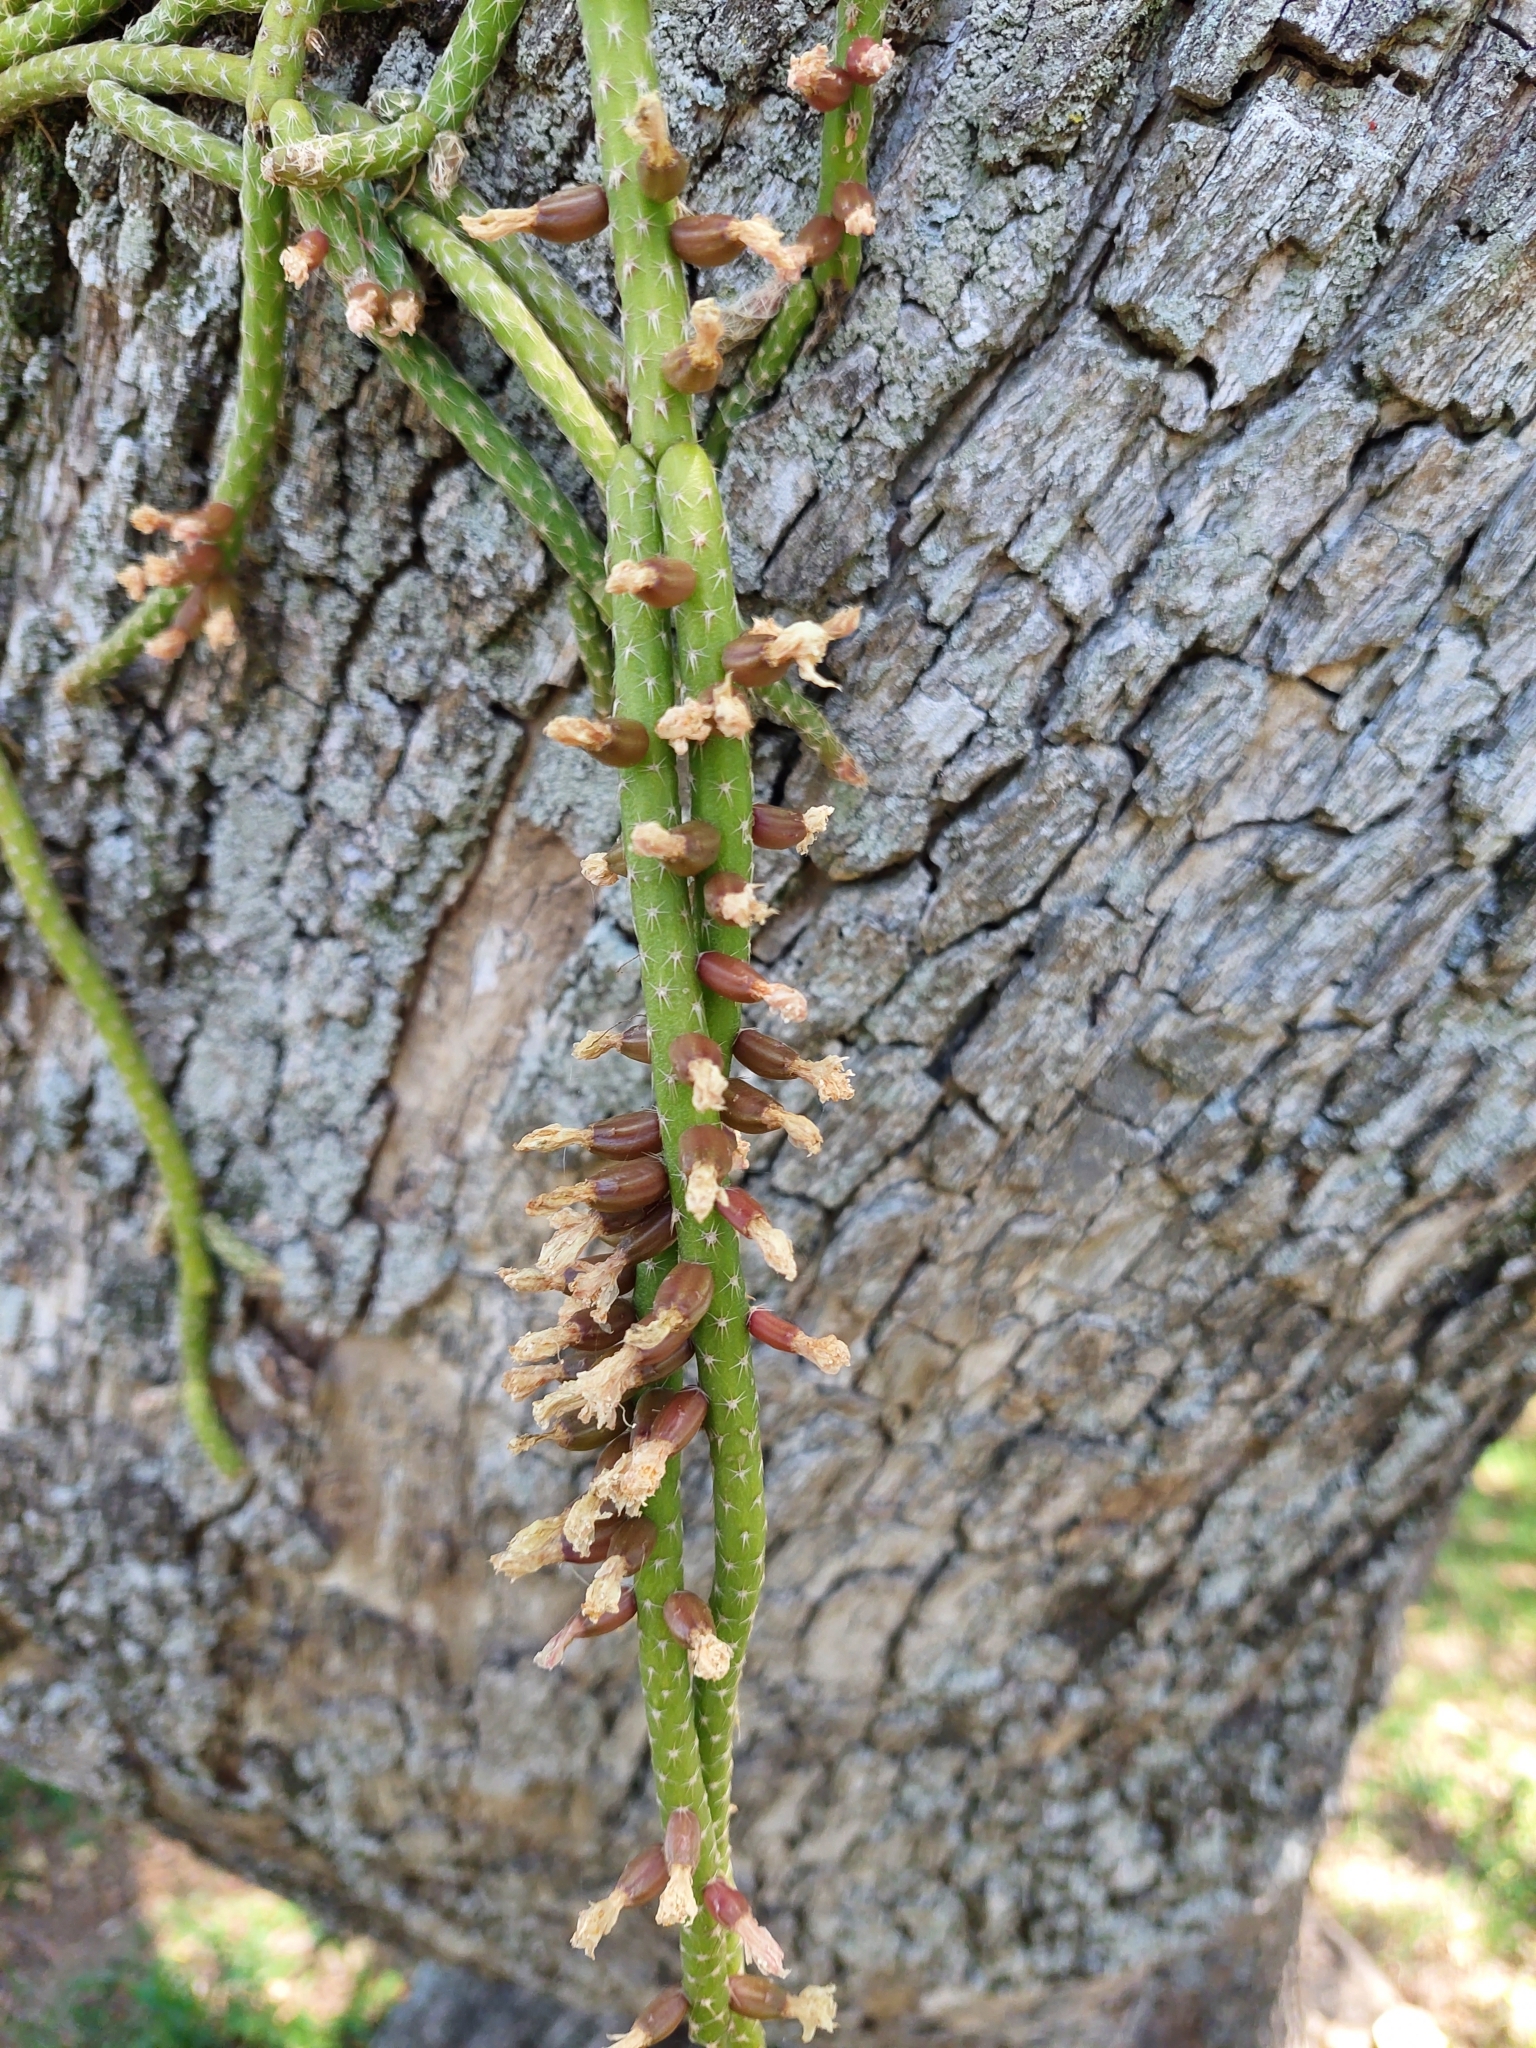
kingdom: Plantae
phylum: Tracheophyta
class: Magnoliopsida
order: Caryophyllales
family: Cactaceae
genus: Lepismium
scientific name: Lepismium lumbricoides
